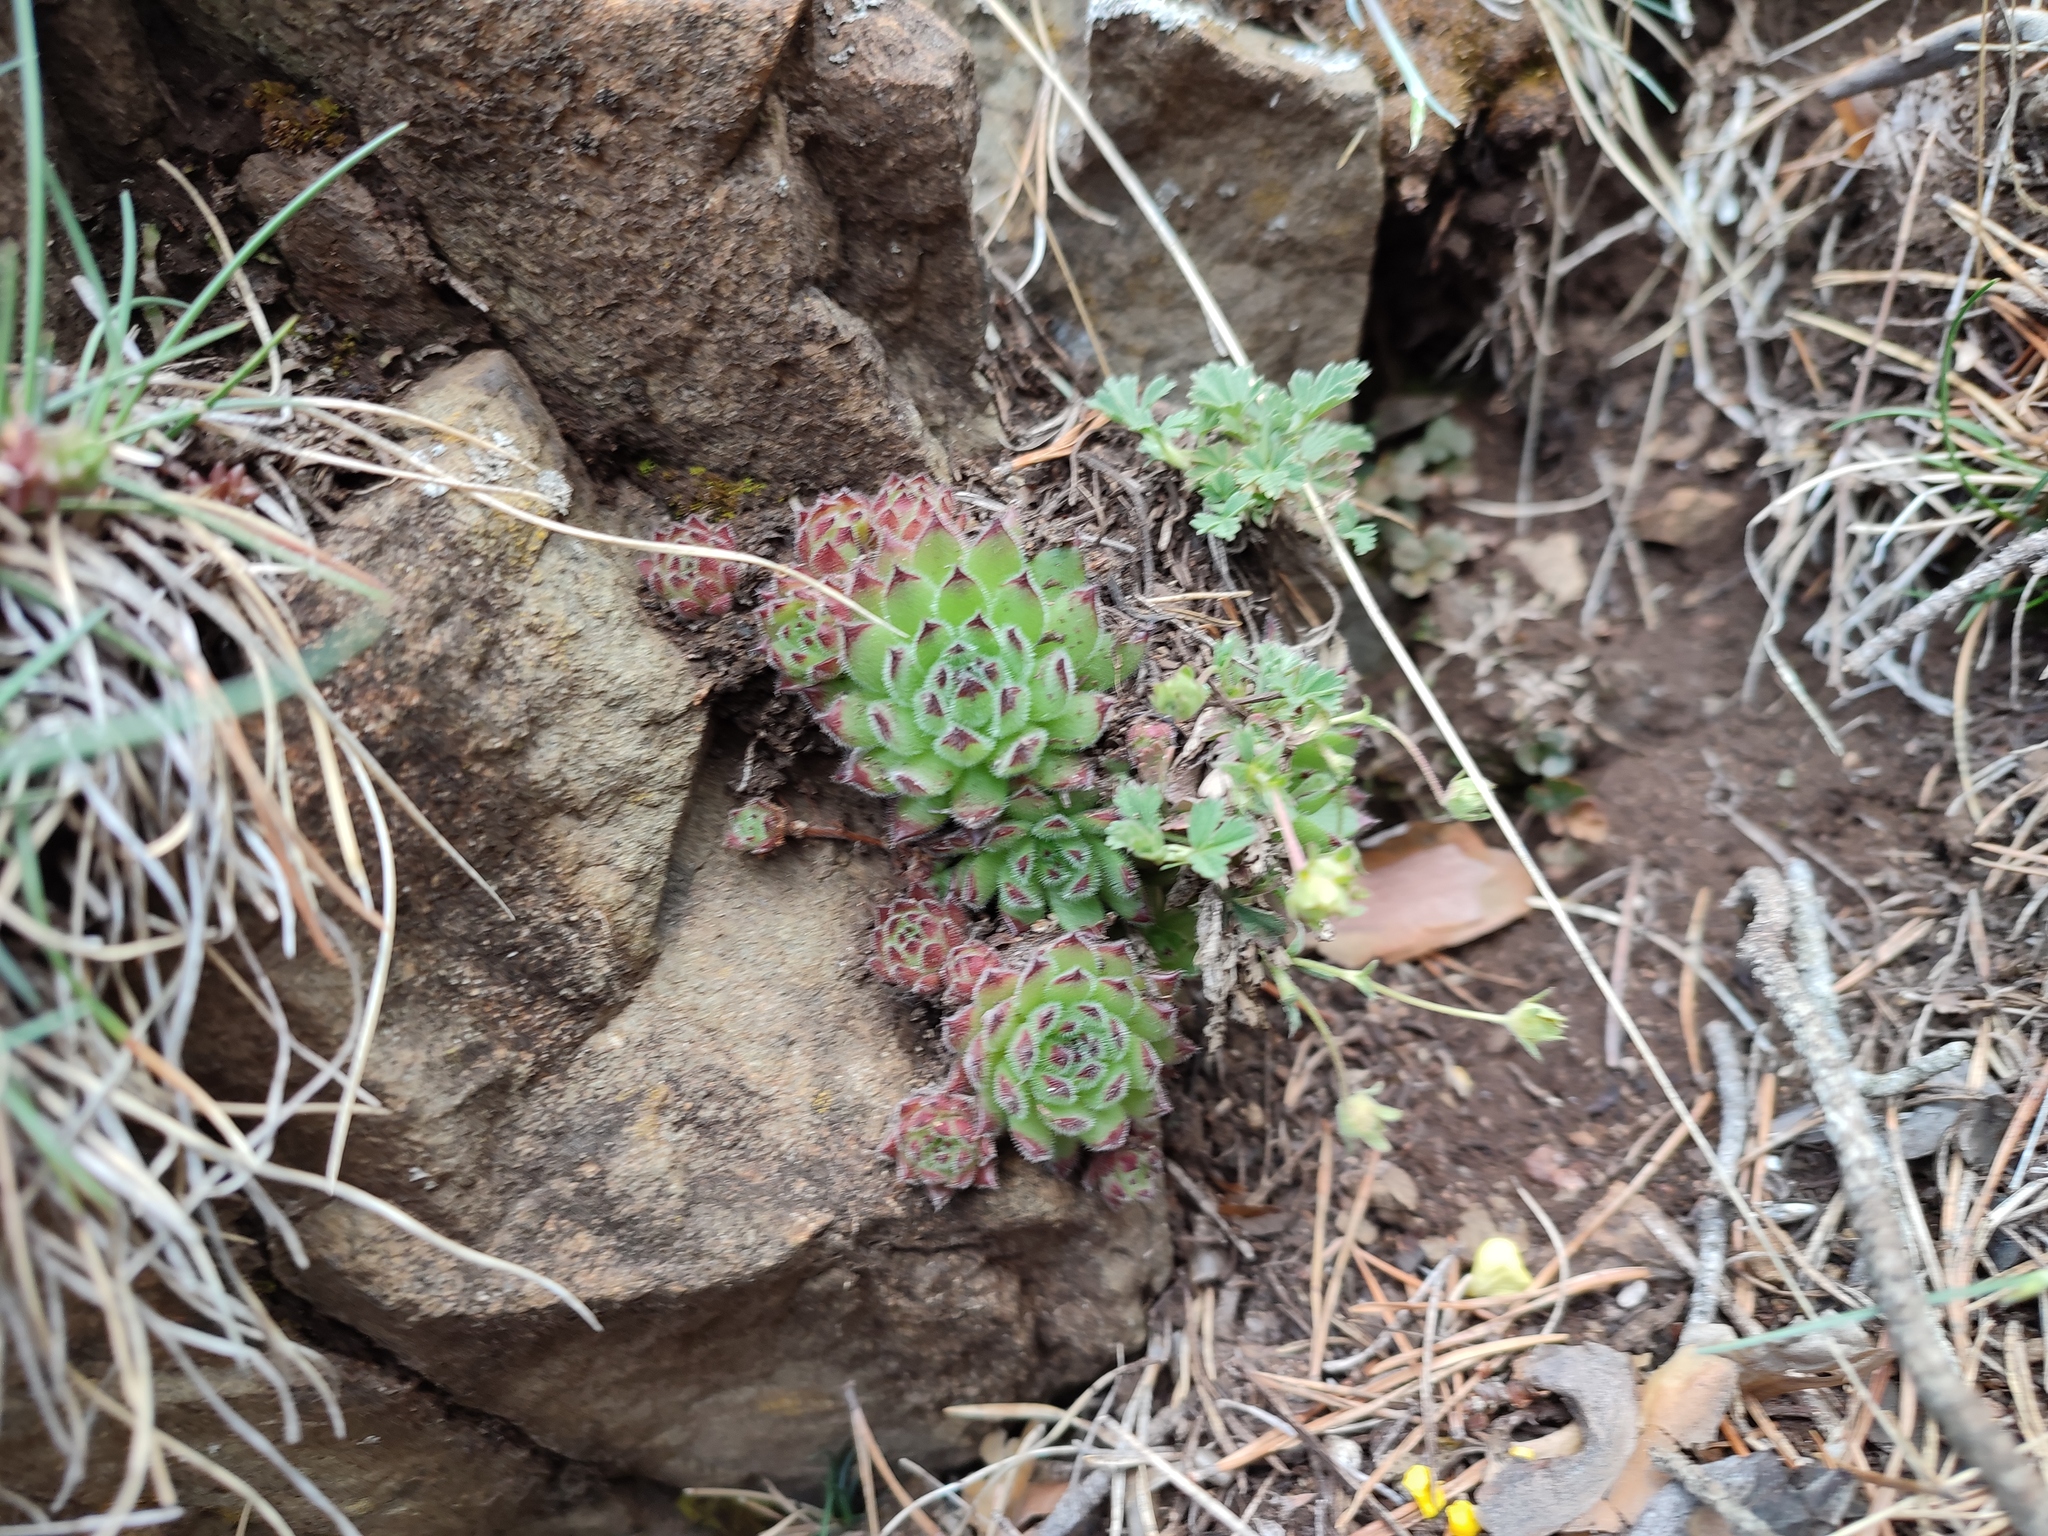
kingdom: Plantae
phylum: Tracheophyta
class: Magnoliopsida
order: Saxifragales
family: Crassulaceae
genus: Sempervivum
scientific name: Sempervivum pittonii
